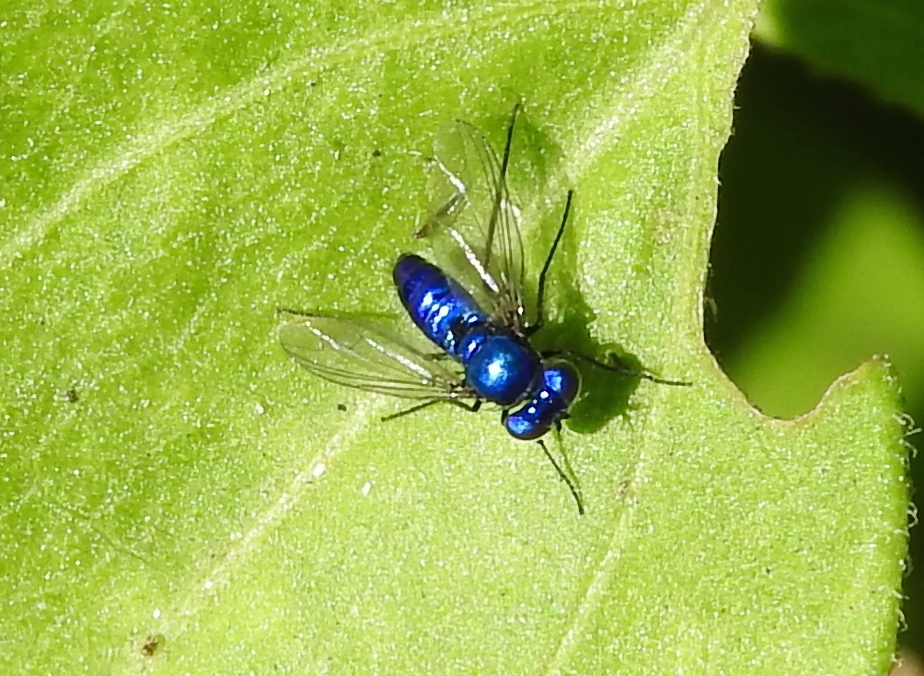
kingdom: Animalia
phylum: Arthropoda
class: Insecta
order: Diptera
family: Dolichopodidae
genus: Condylostylus
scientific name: Condylostylus mundus
